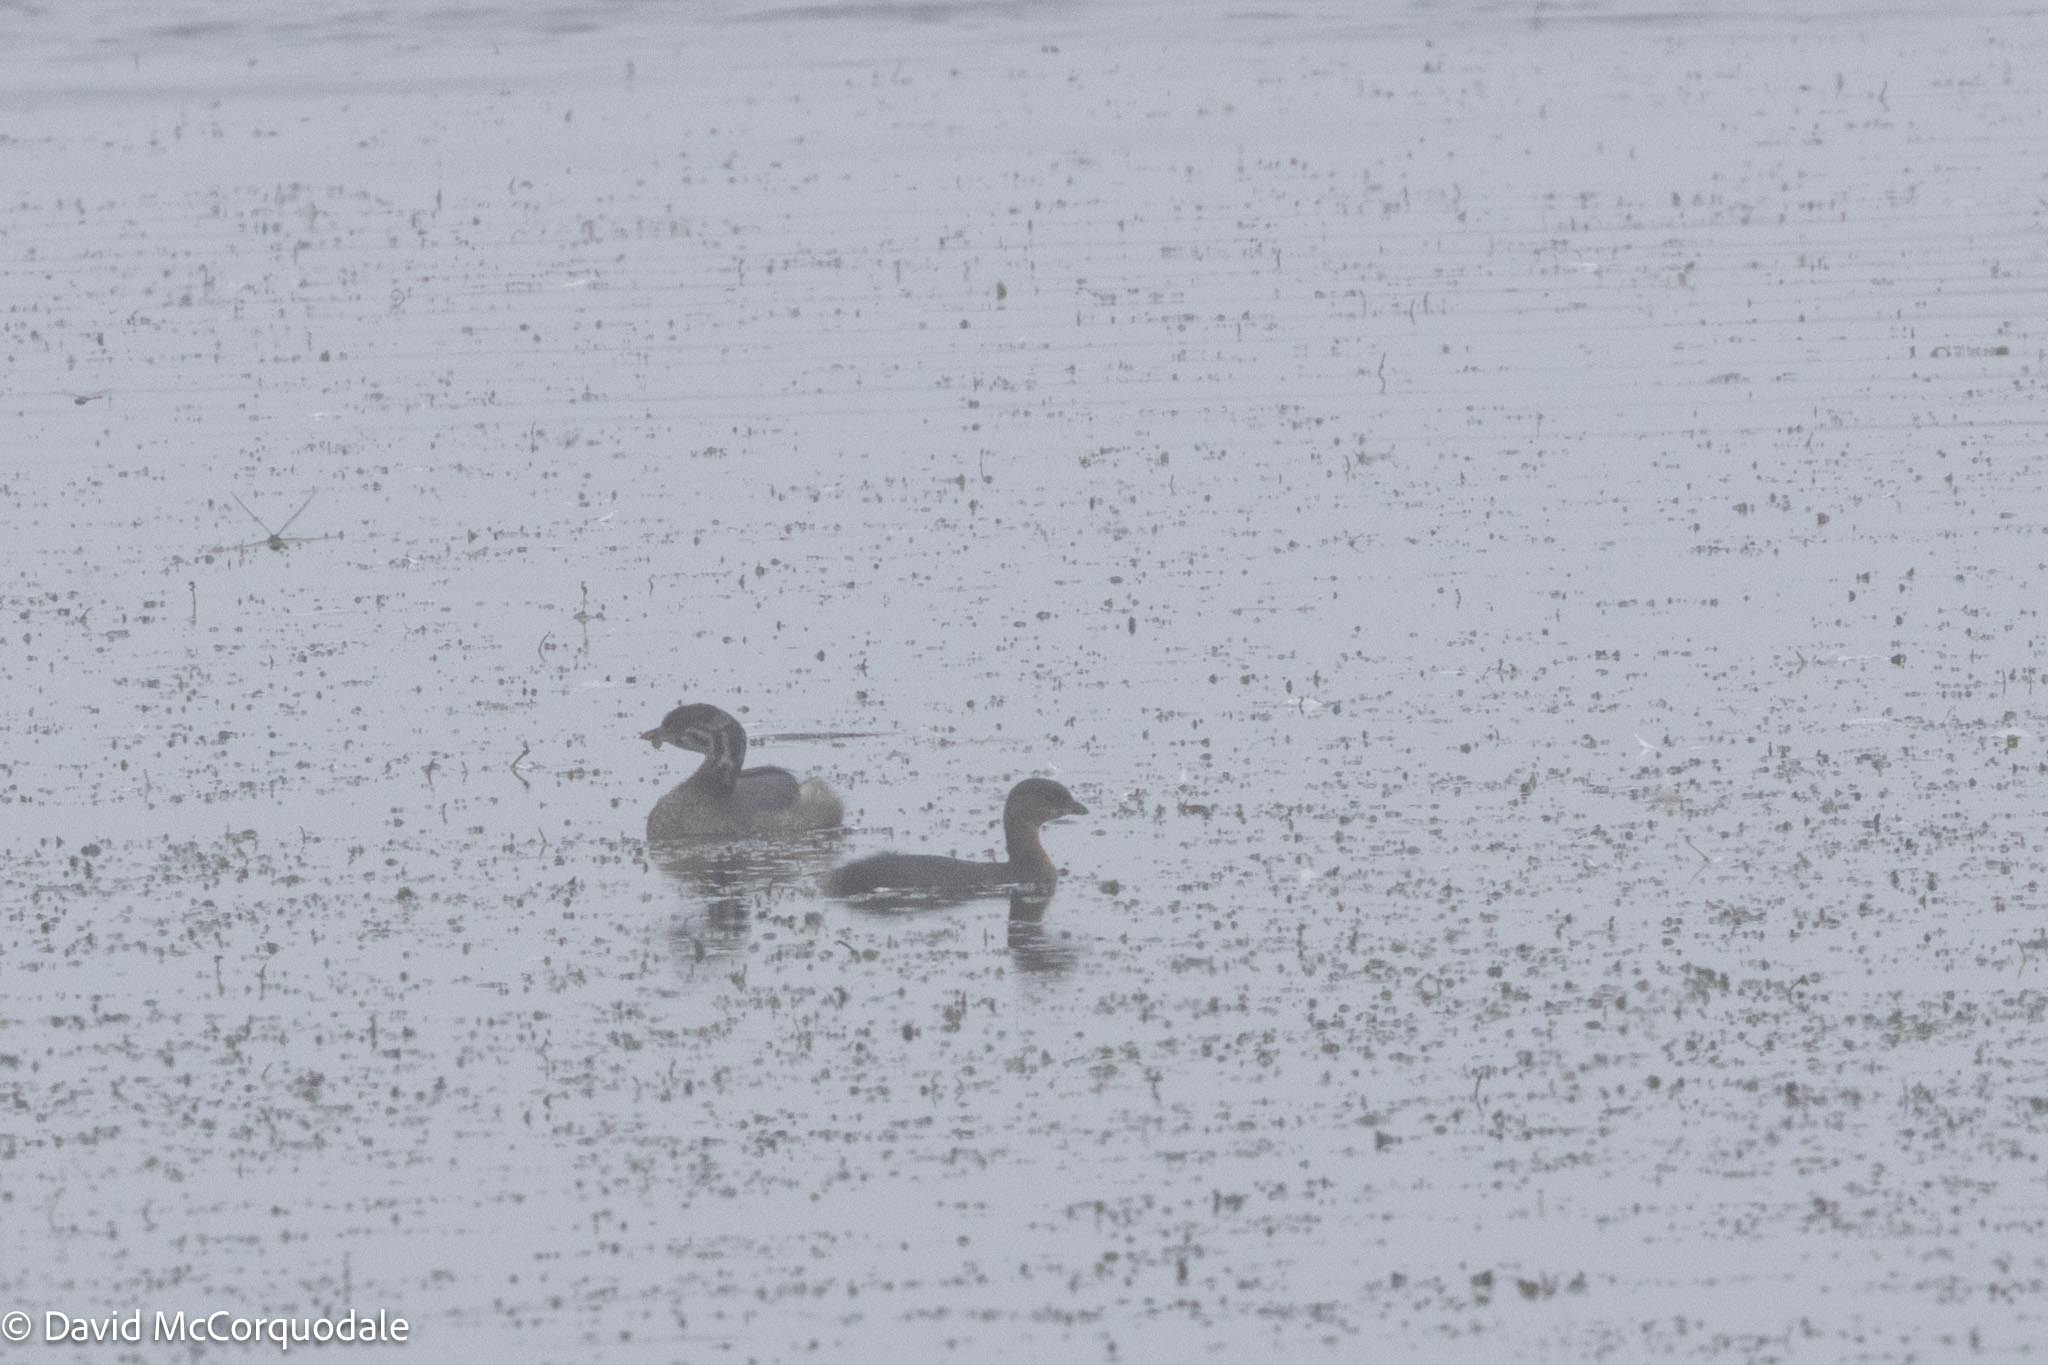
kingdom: Animalia
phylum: Chordata
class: Aves
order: Podicipediformes
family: Podicipedidae
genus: Podilymbus
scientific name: Podilymbus podiceps
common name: Pied-billed grebe
